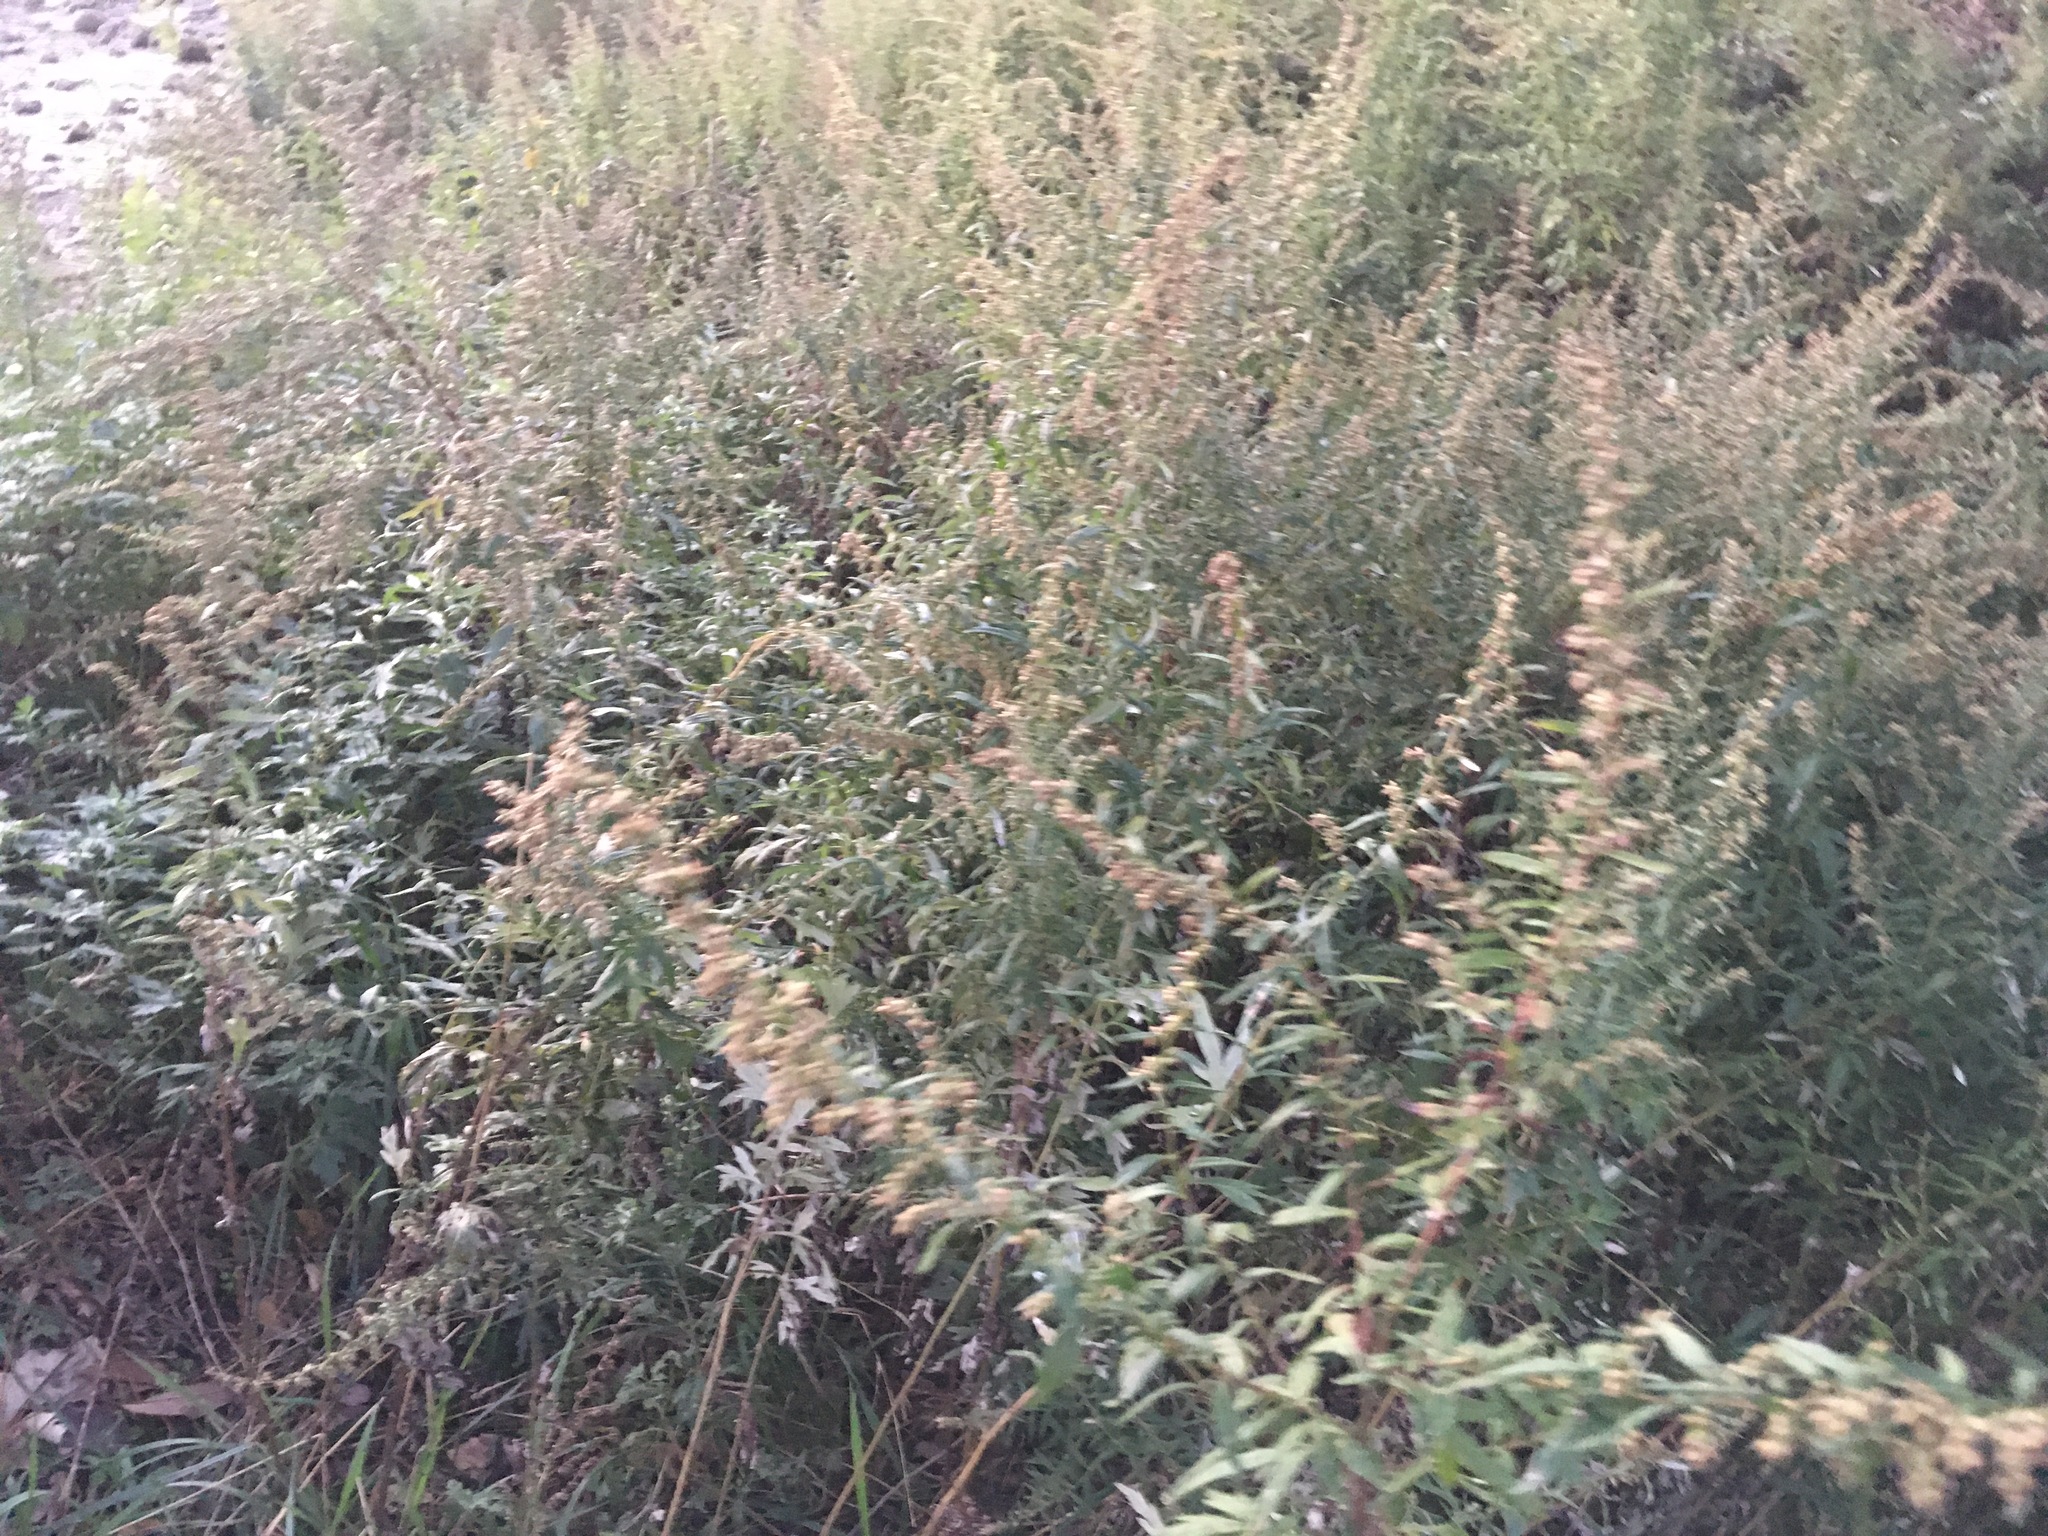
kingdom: Plantae
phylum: Tracheophyta
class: Magnoliopsida
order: Asterales
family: Asteraceae
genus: Artemisia
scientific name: Artemisia vulgaris
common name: Mugwort
